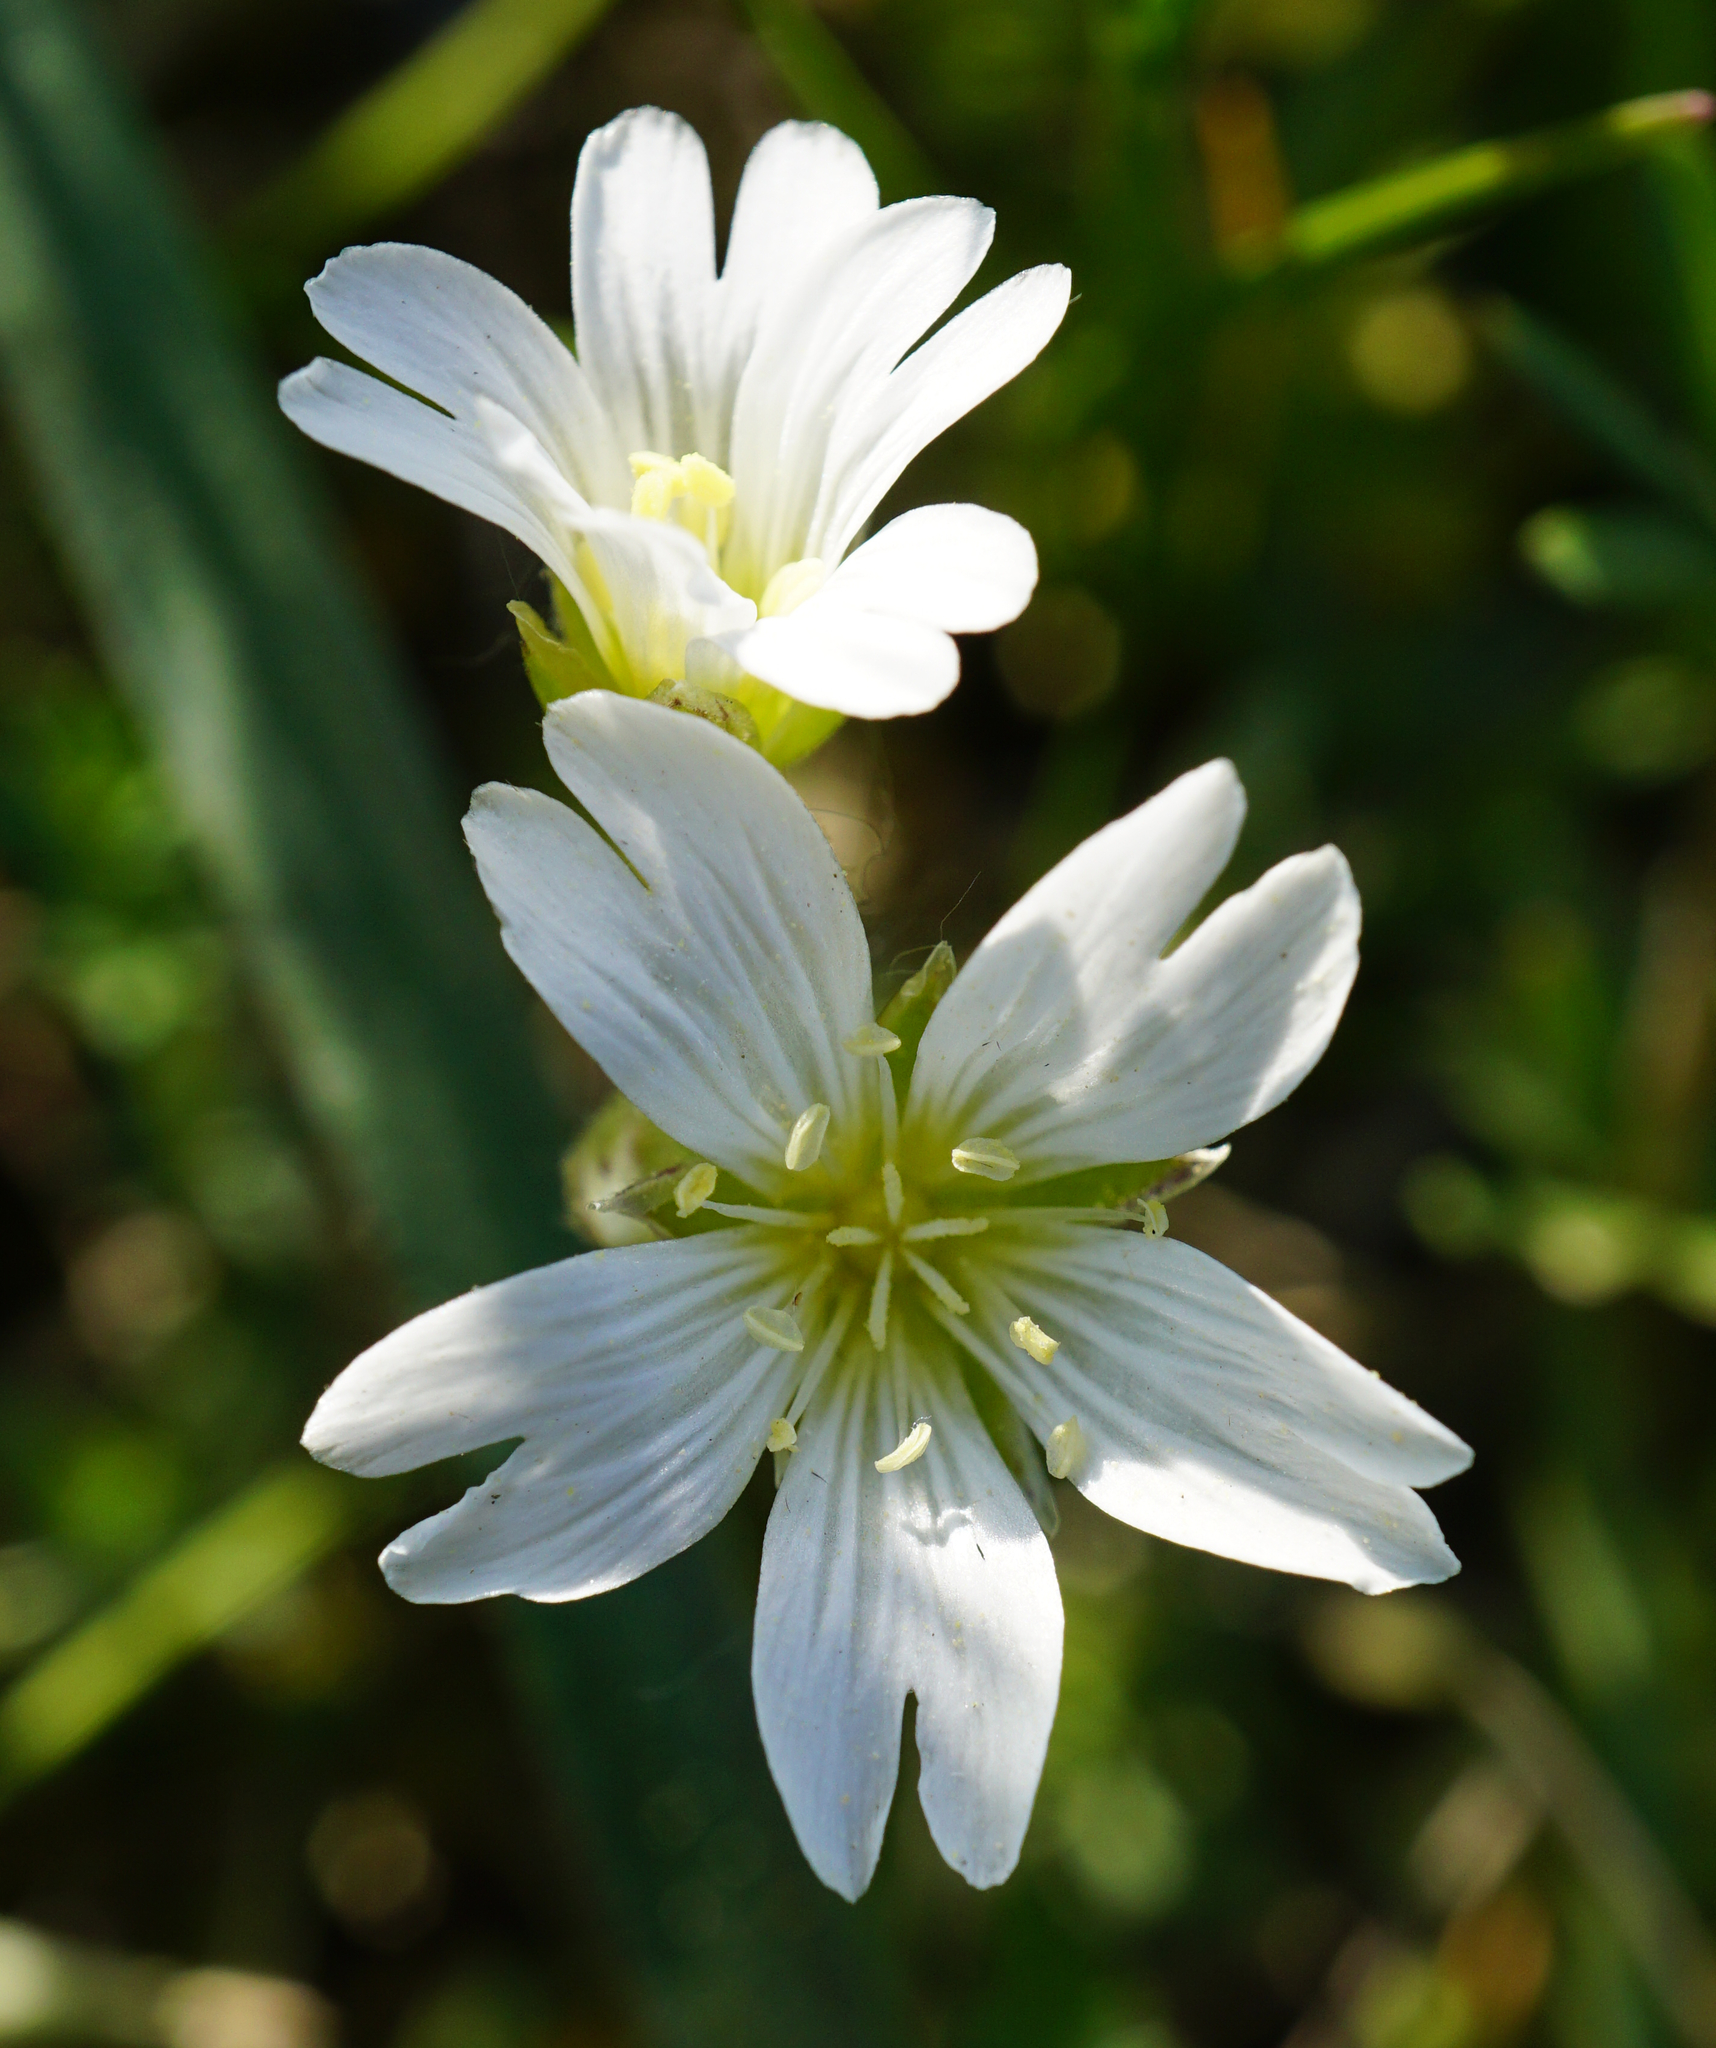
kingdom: Plantae
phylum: Tracheophyta
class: Magnoliopsida
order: Caryophyllales
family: Caryophyllaceae
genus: Cerastium
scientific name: Cerastium arvense
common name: Field mouse-ear
